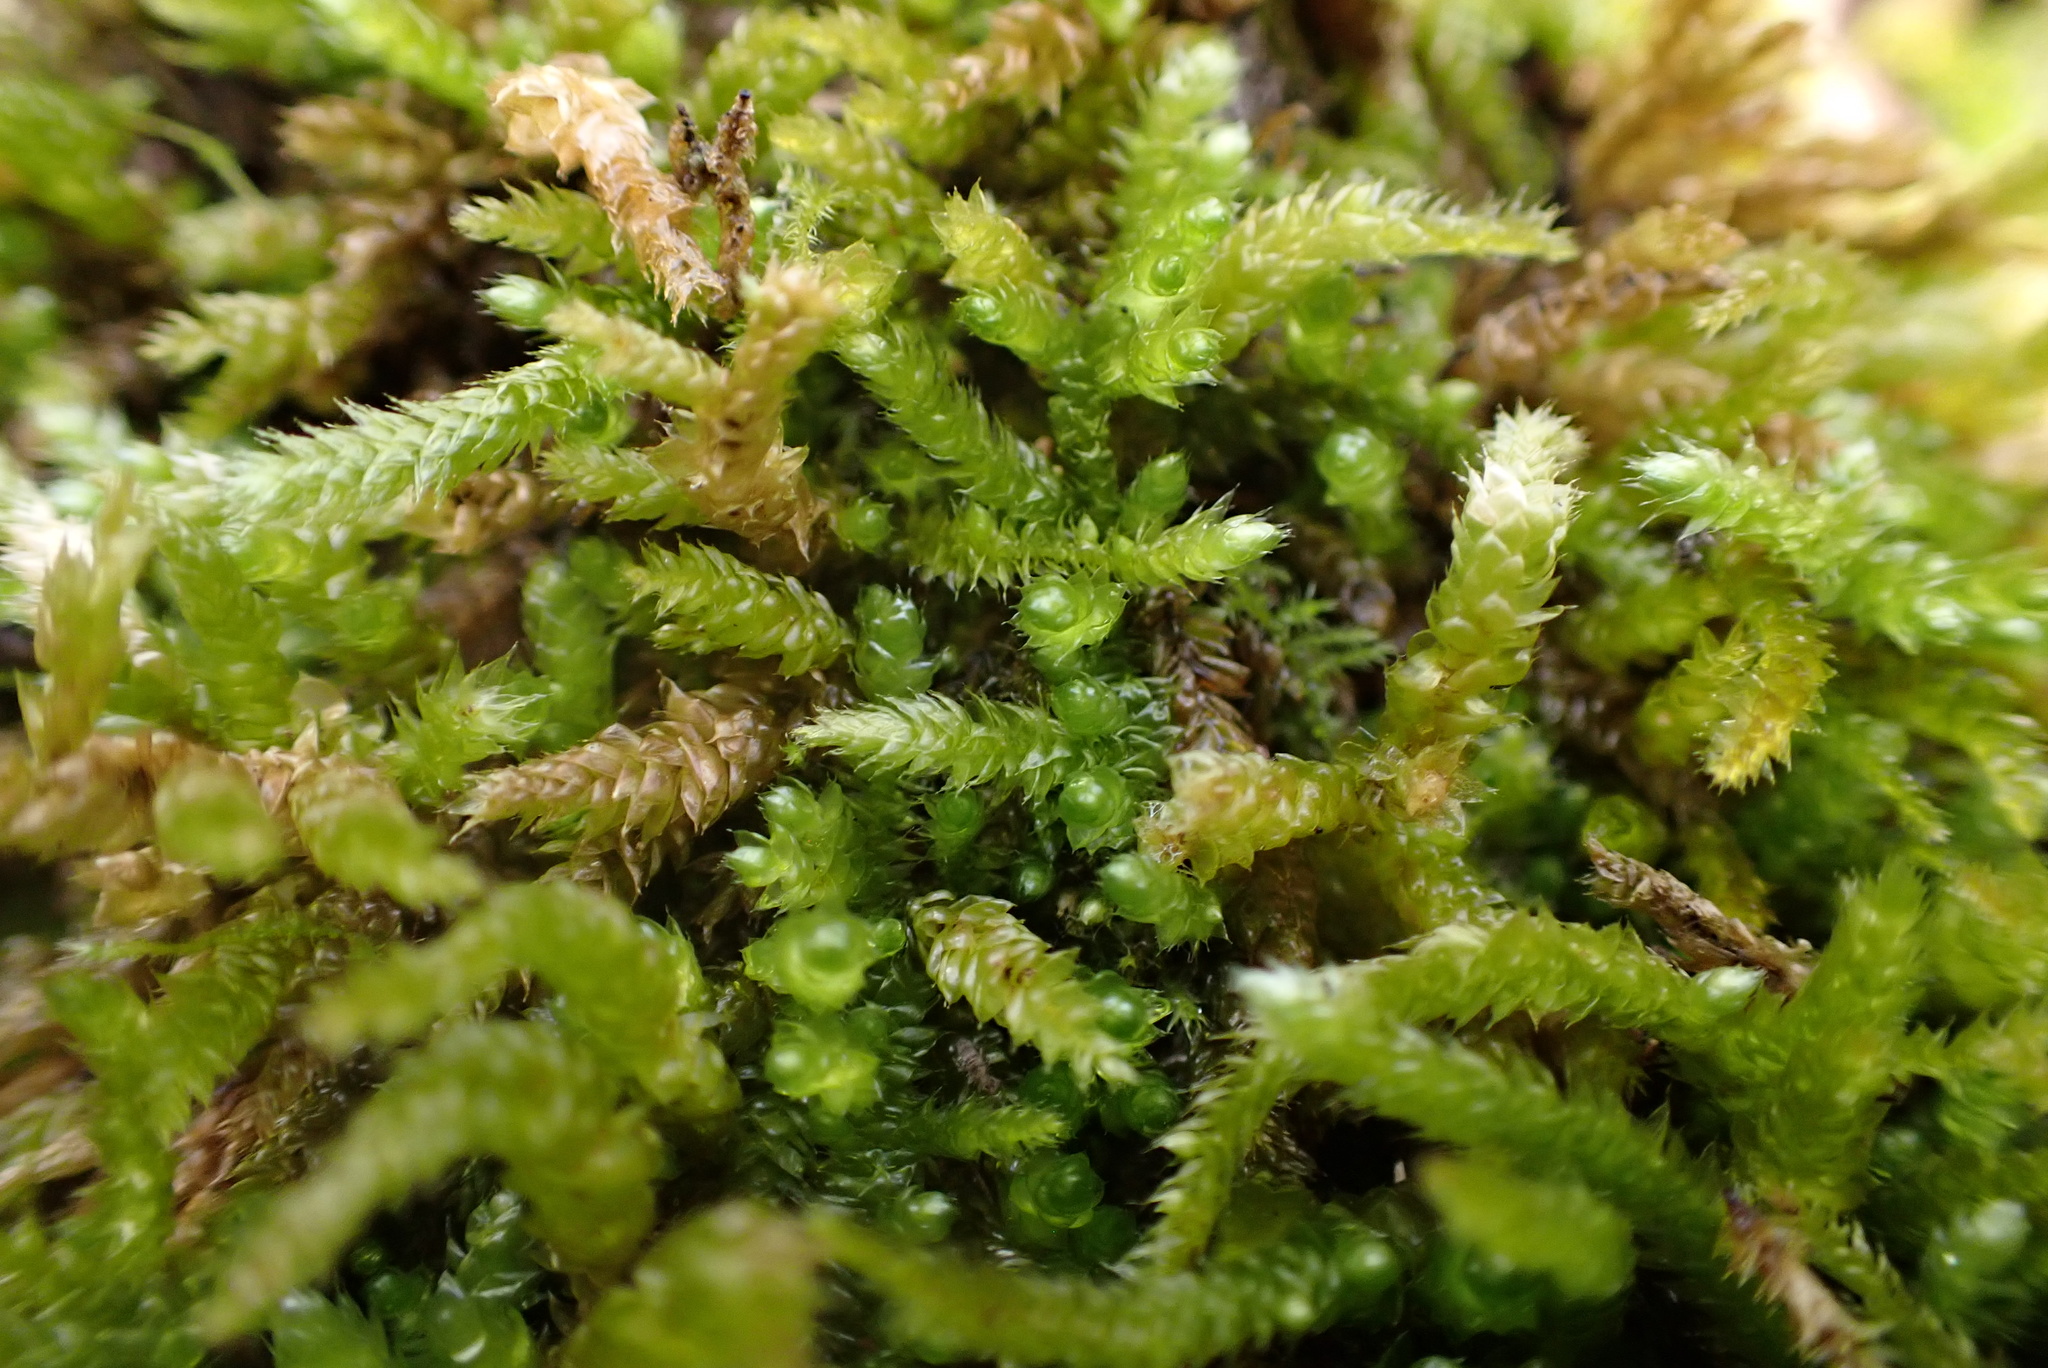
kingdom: Plantae
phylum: Bryophyta
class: Bryopsida
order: Hypnales
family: Brachytheciaceae
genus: Bryoandersonia
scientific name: Bryoandersonia illecebra
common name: Spoon-leaved moss
